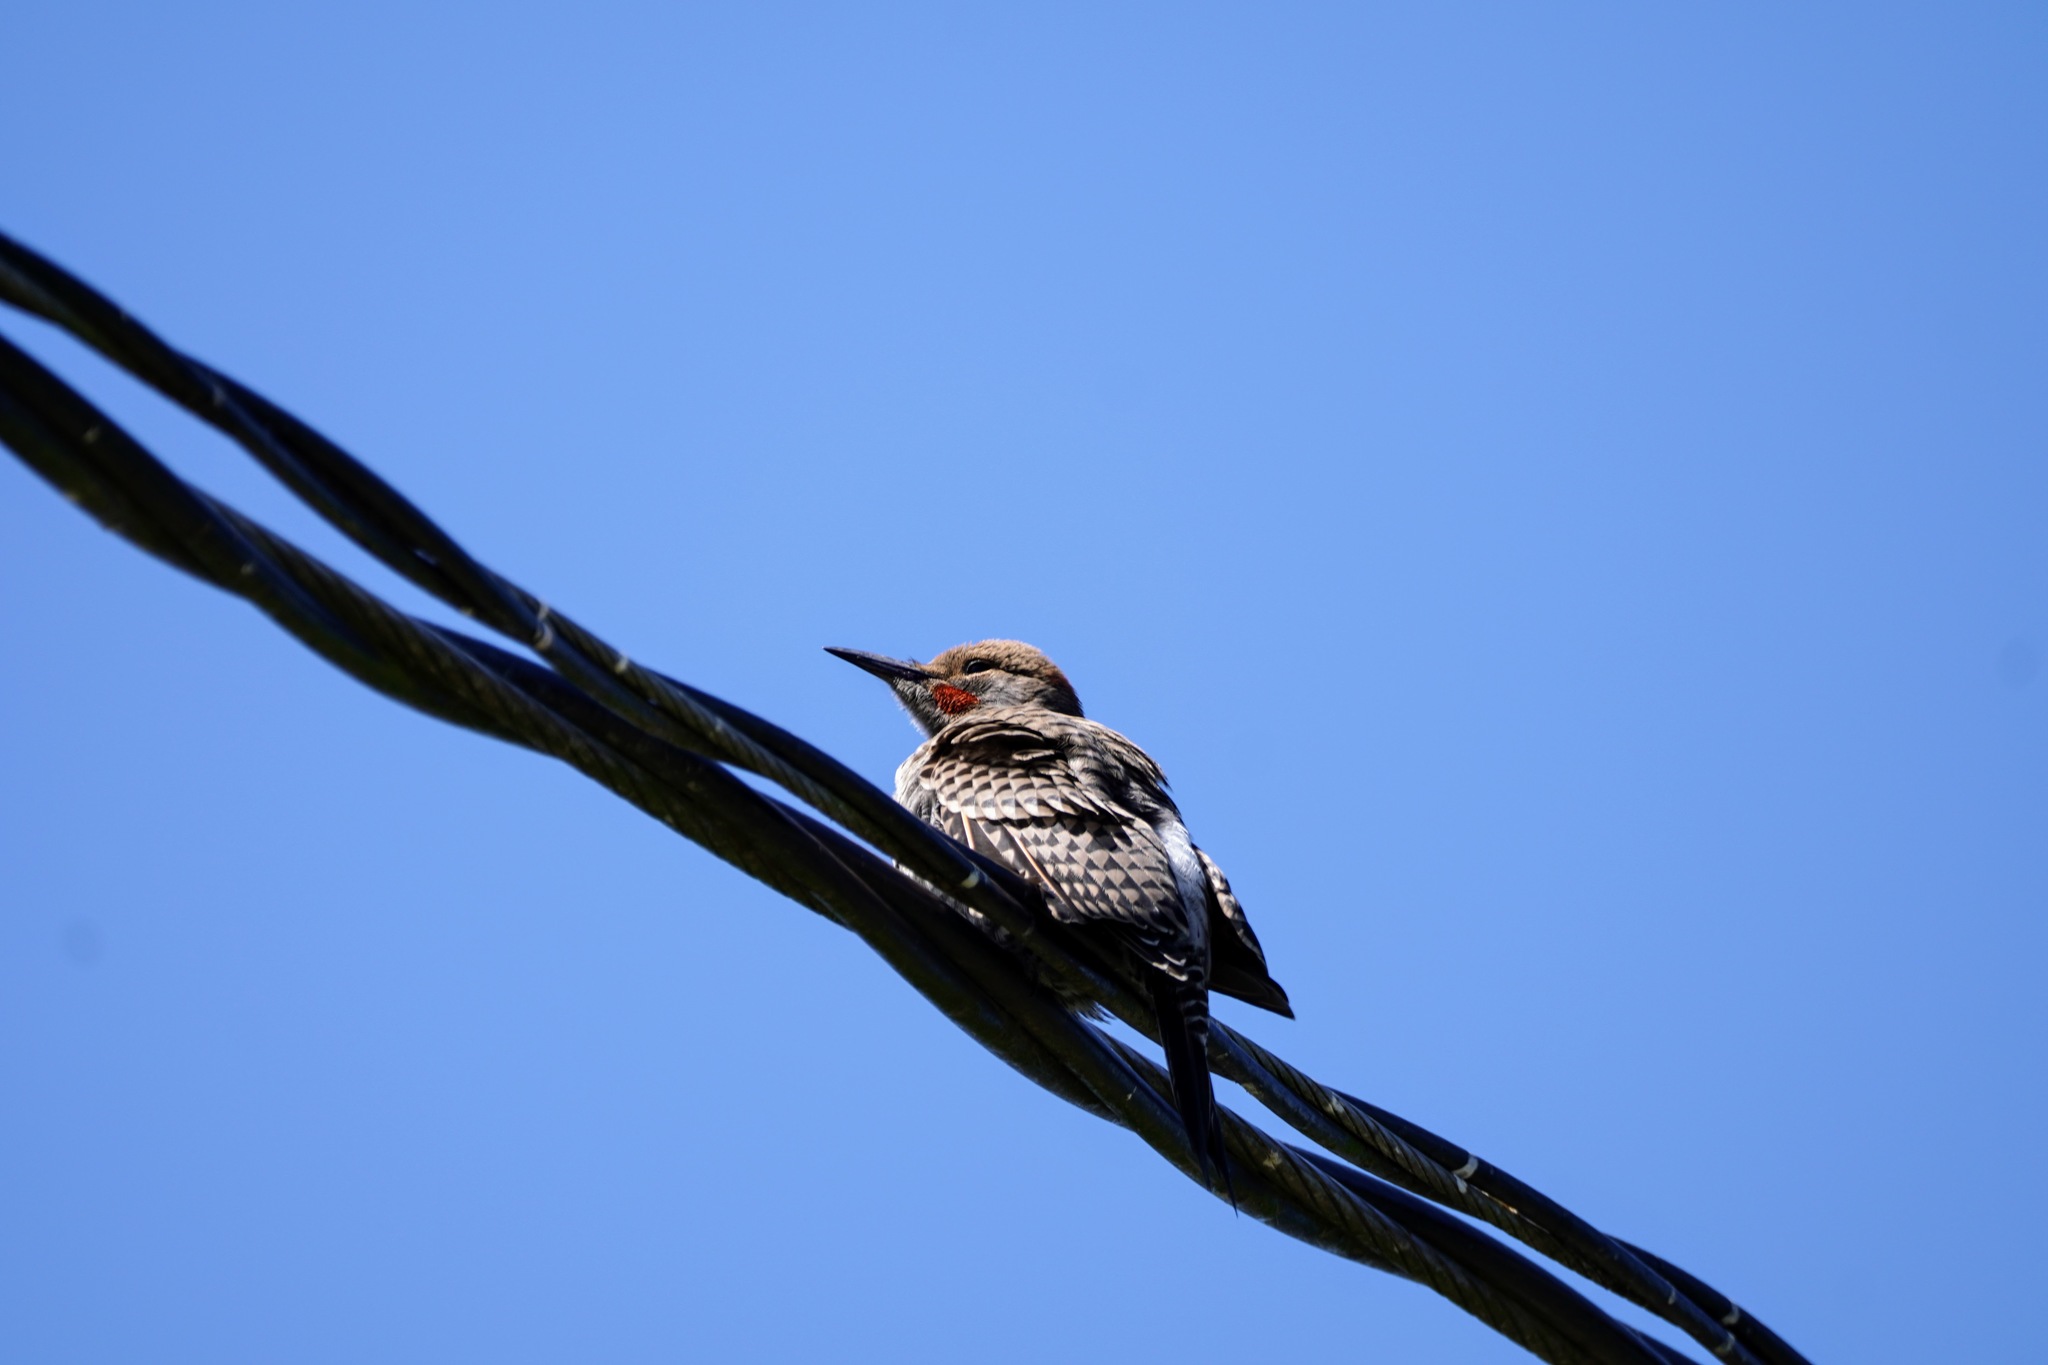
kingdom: Animalia
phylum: Chordata
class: Aves
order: Piciformes
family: Picidae
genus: Colaptes
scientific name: Colaptes auratus
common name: Northern flicker
